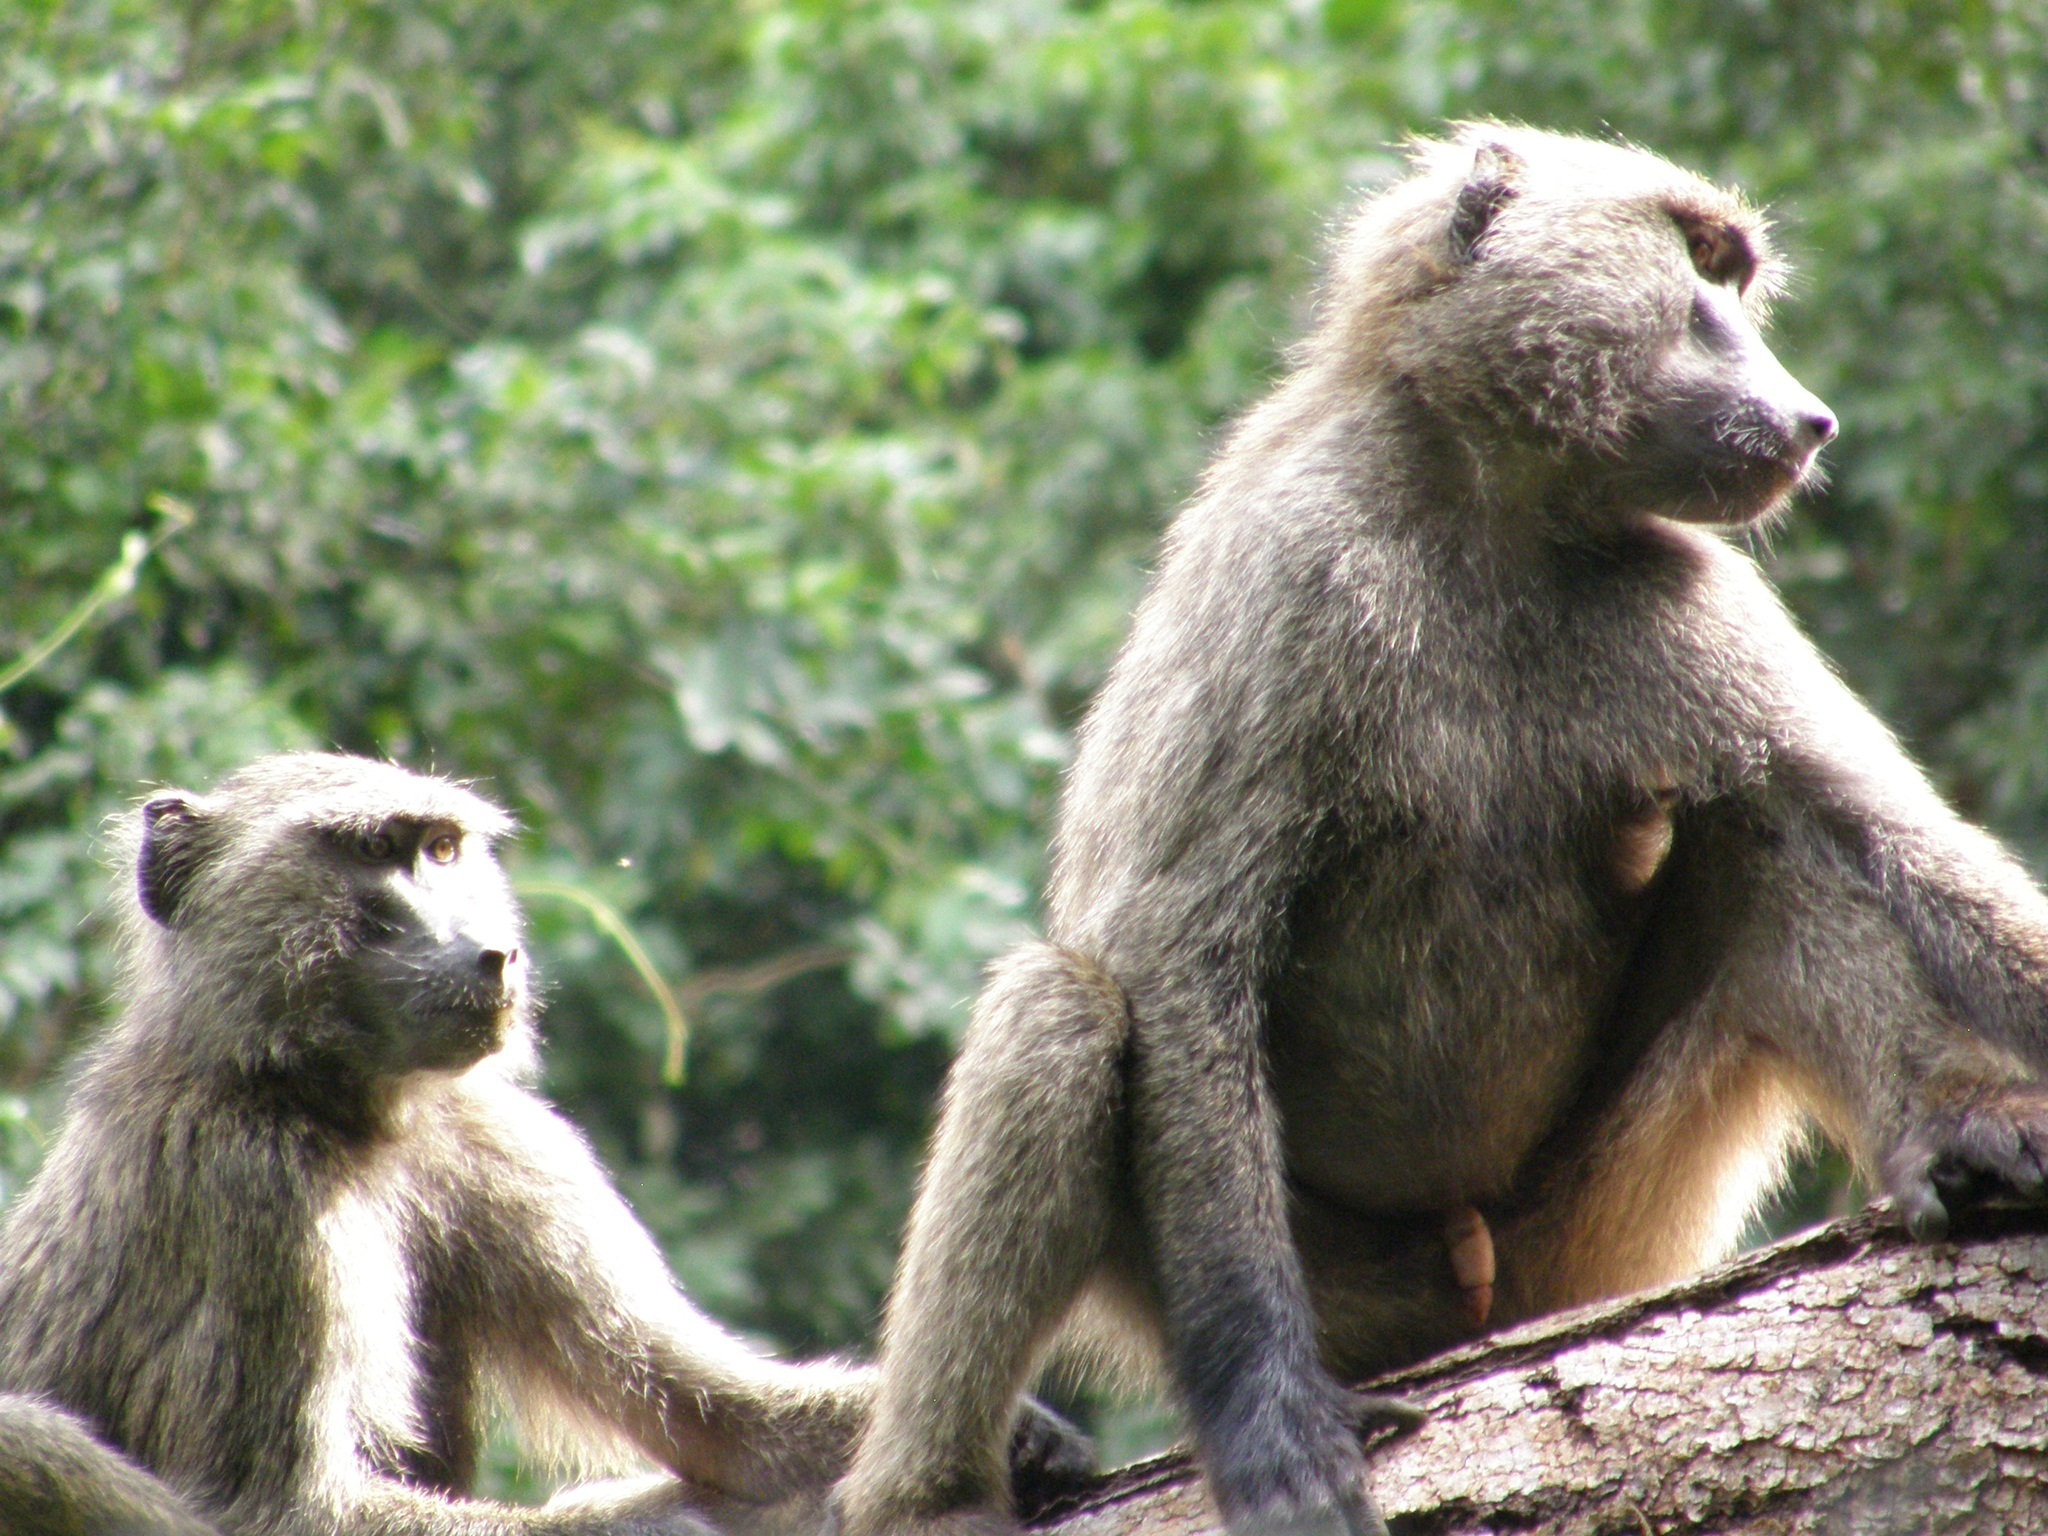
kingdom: Animalia
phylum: Chordata
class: Mammalia
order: Primates
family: Cercopithecidae
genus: Papio
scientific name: Papio anubis
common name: Olive baboon
